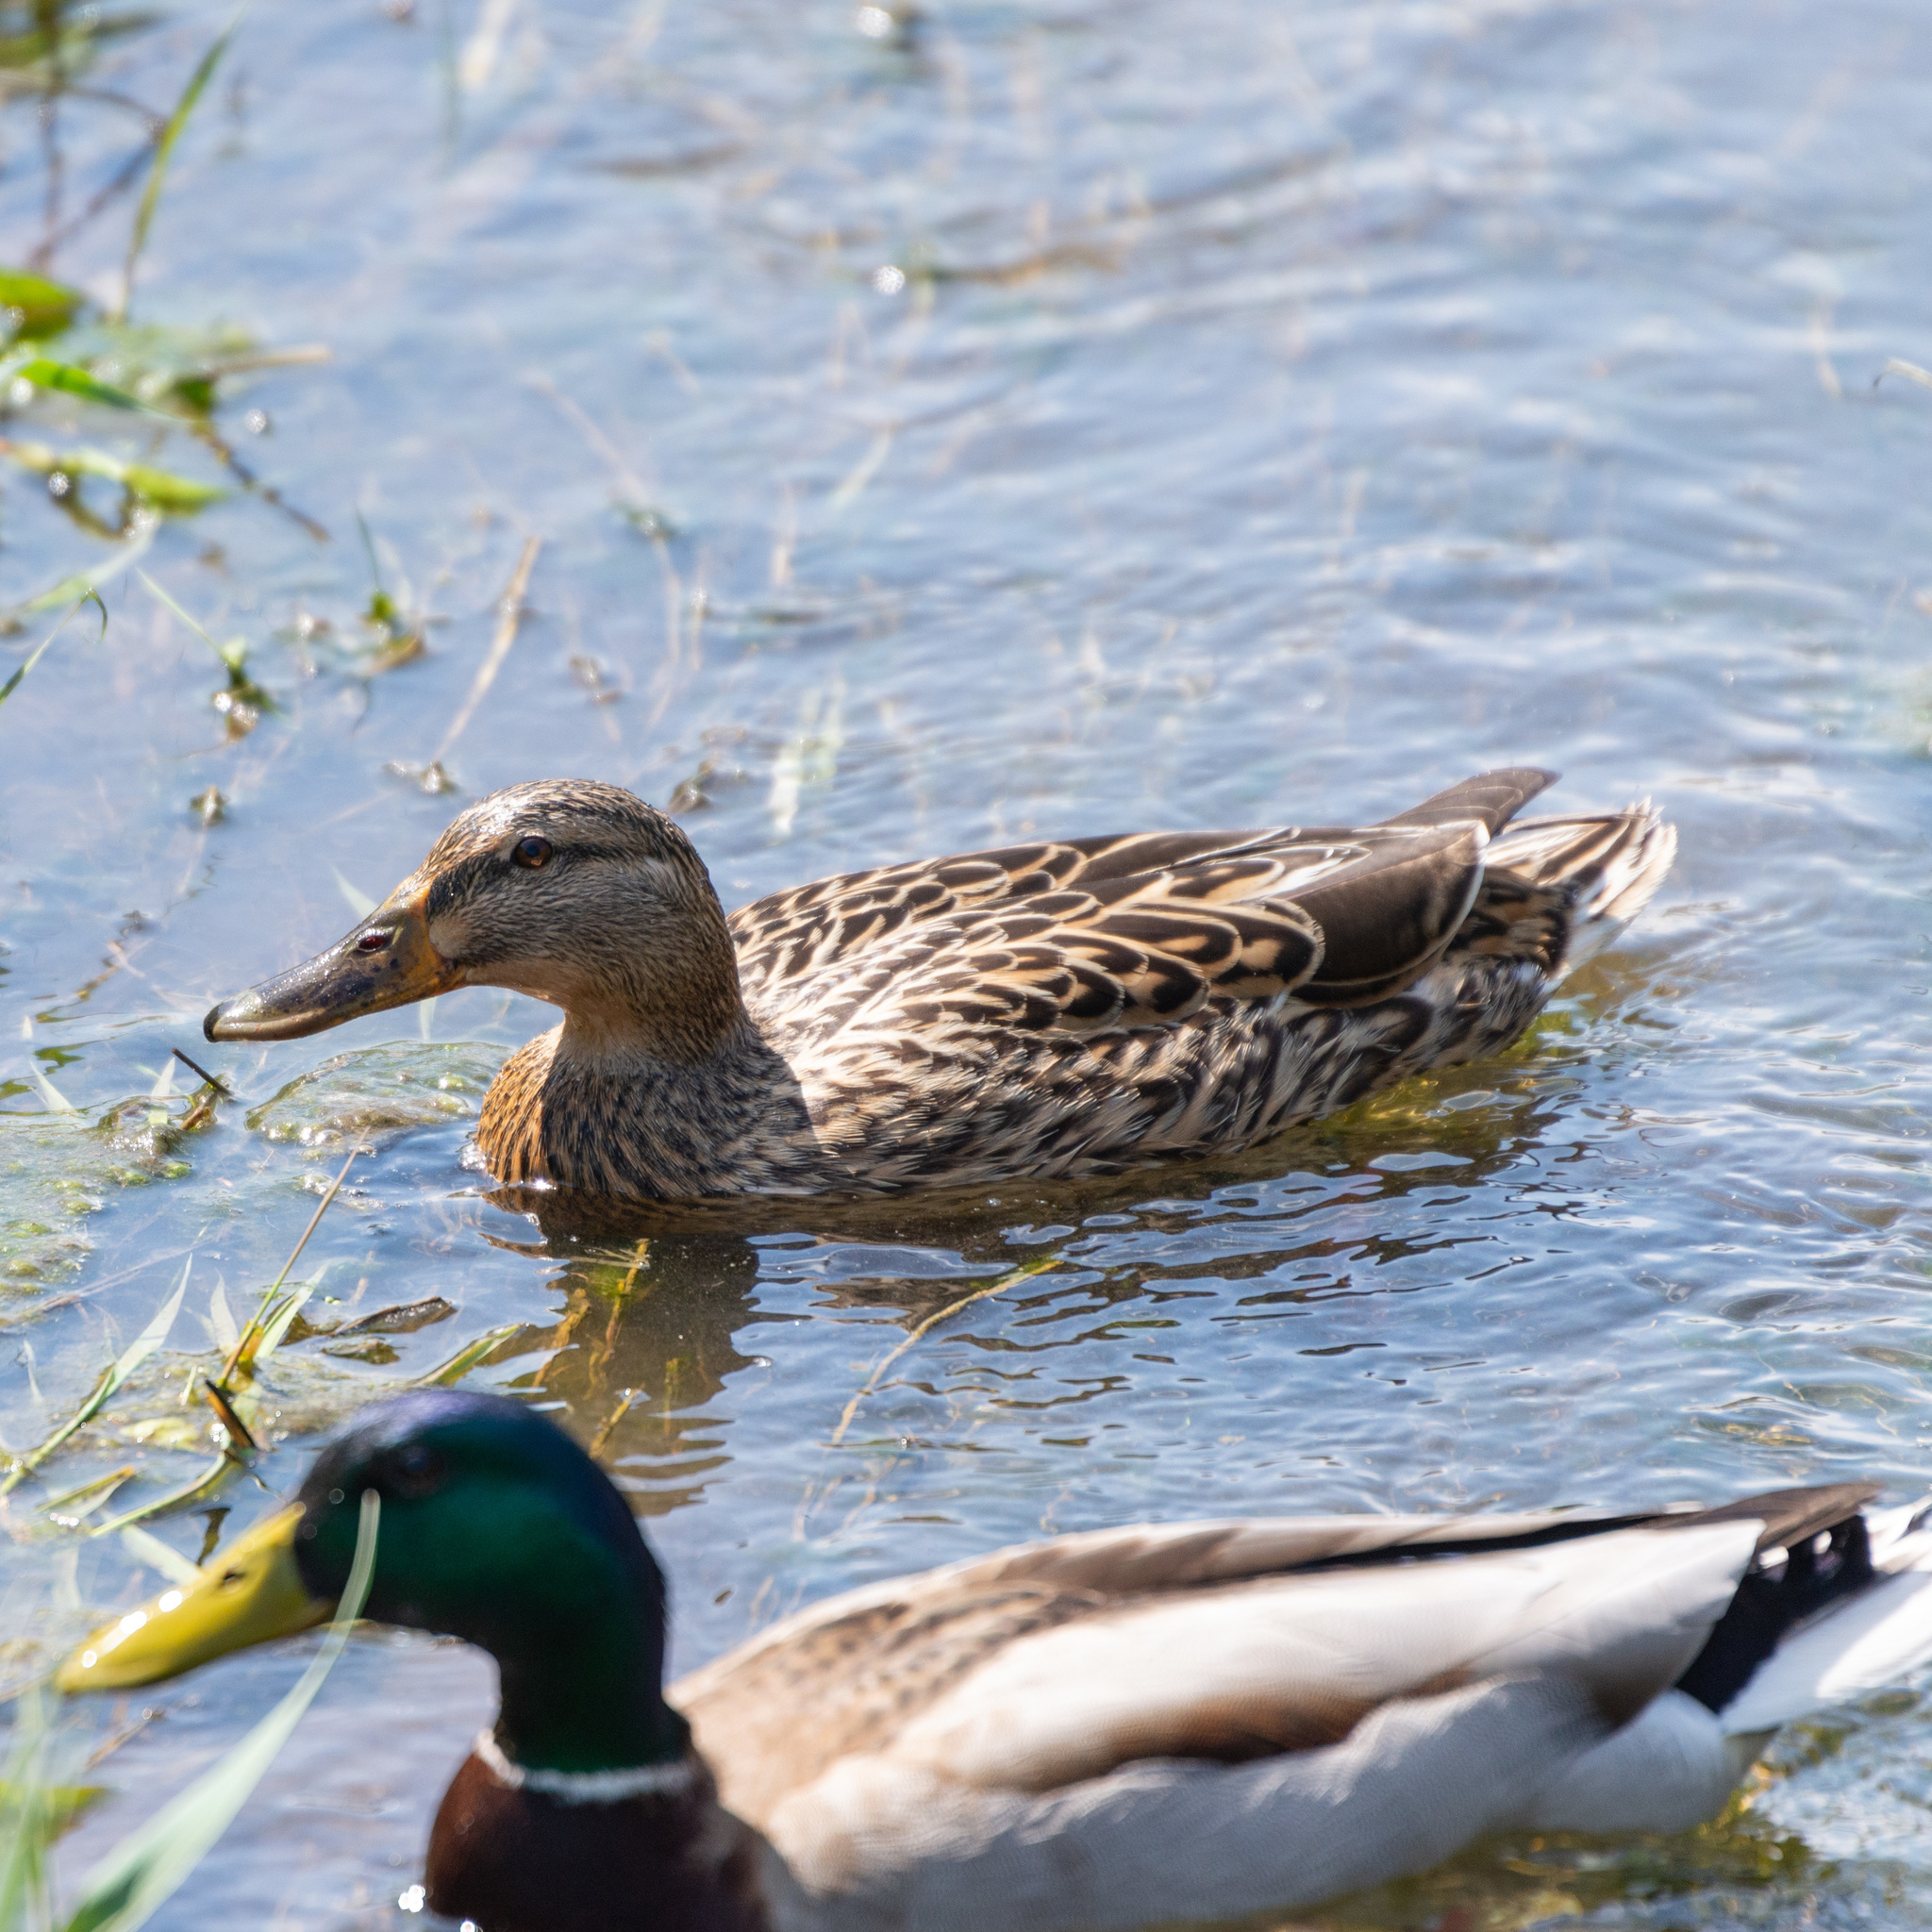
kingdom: Animalia
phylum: Chordata
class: Aves
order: Anseriformes
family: Anatidae
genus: Anas
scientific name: Anas platyrhynchos
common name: Mallard
